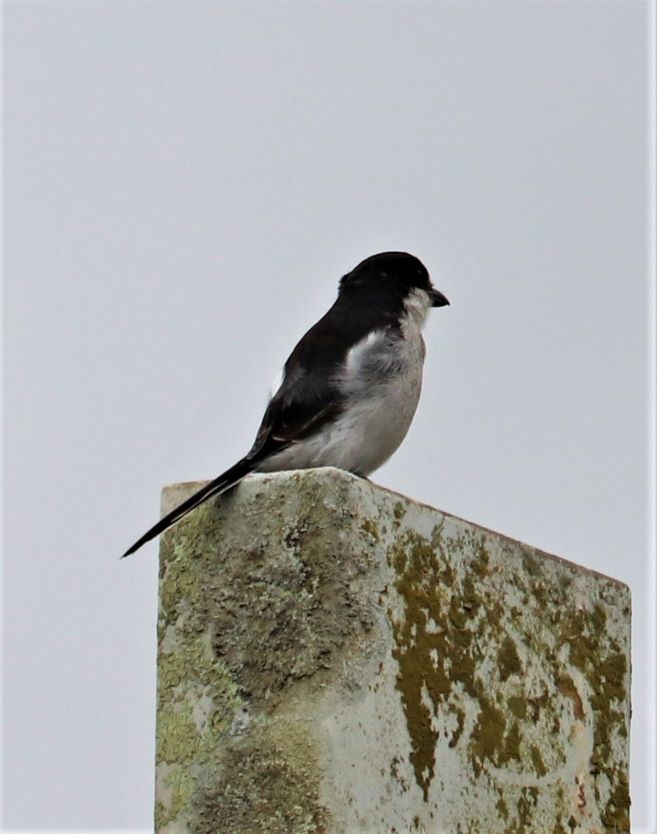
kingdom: Animalia
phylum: Chordata
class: Aves
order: Passeriformes
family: Laniidae
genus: Lanius
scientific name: Lanius collaris
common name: Southern fiscal
